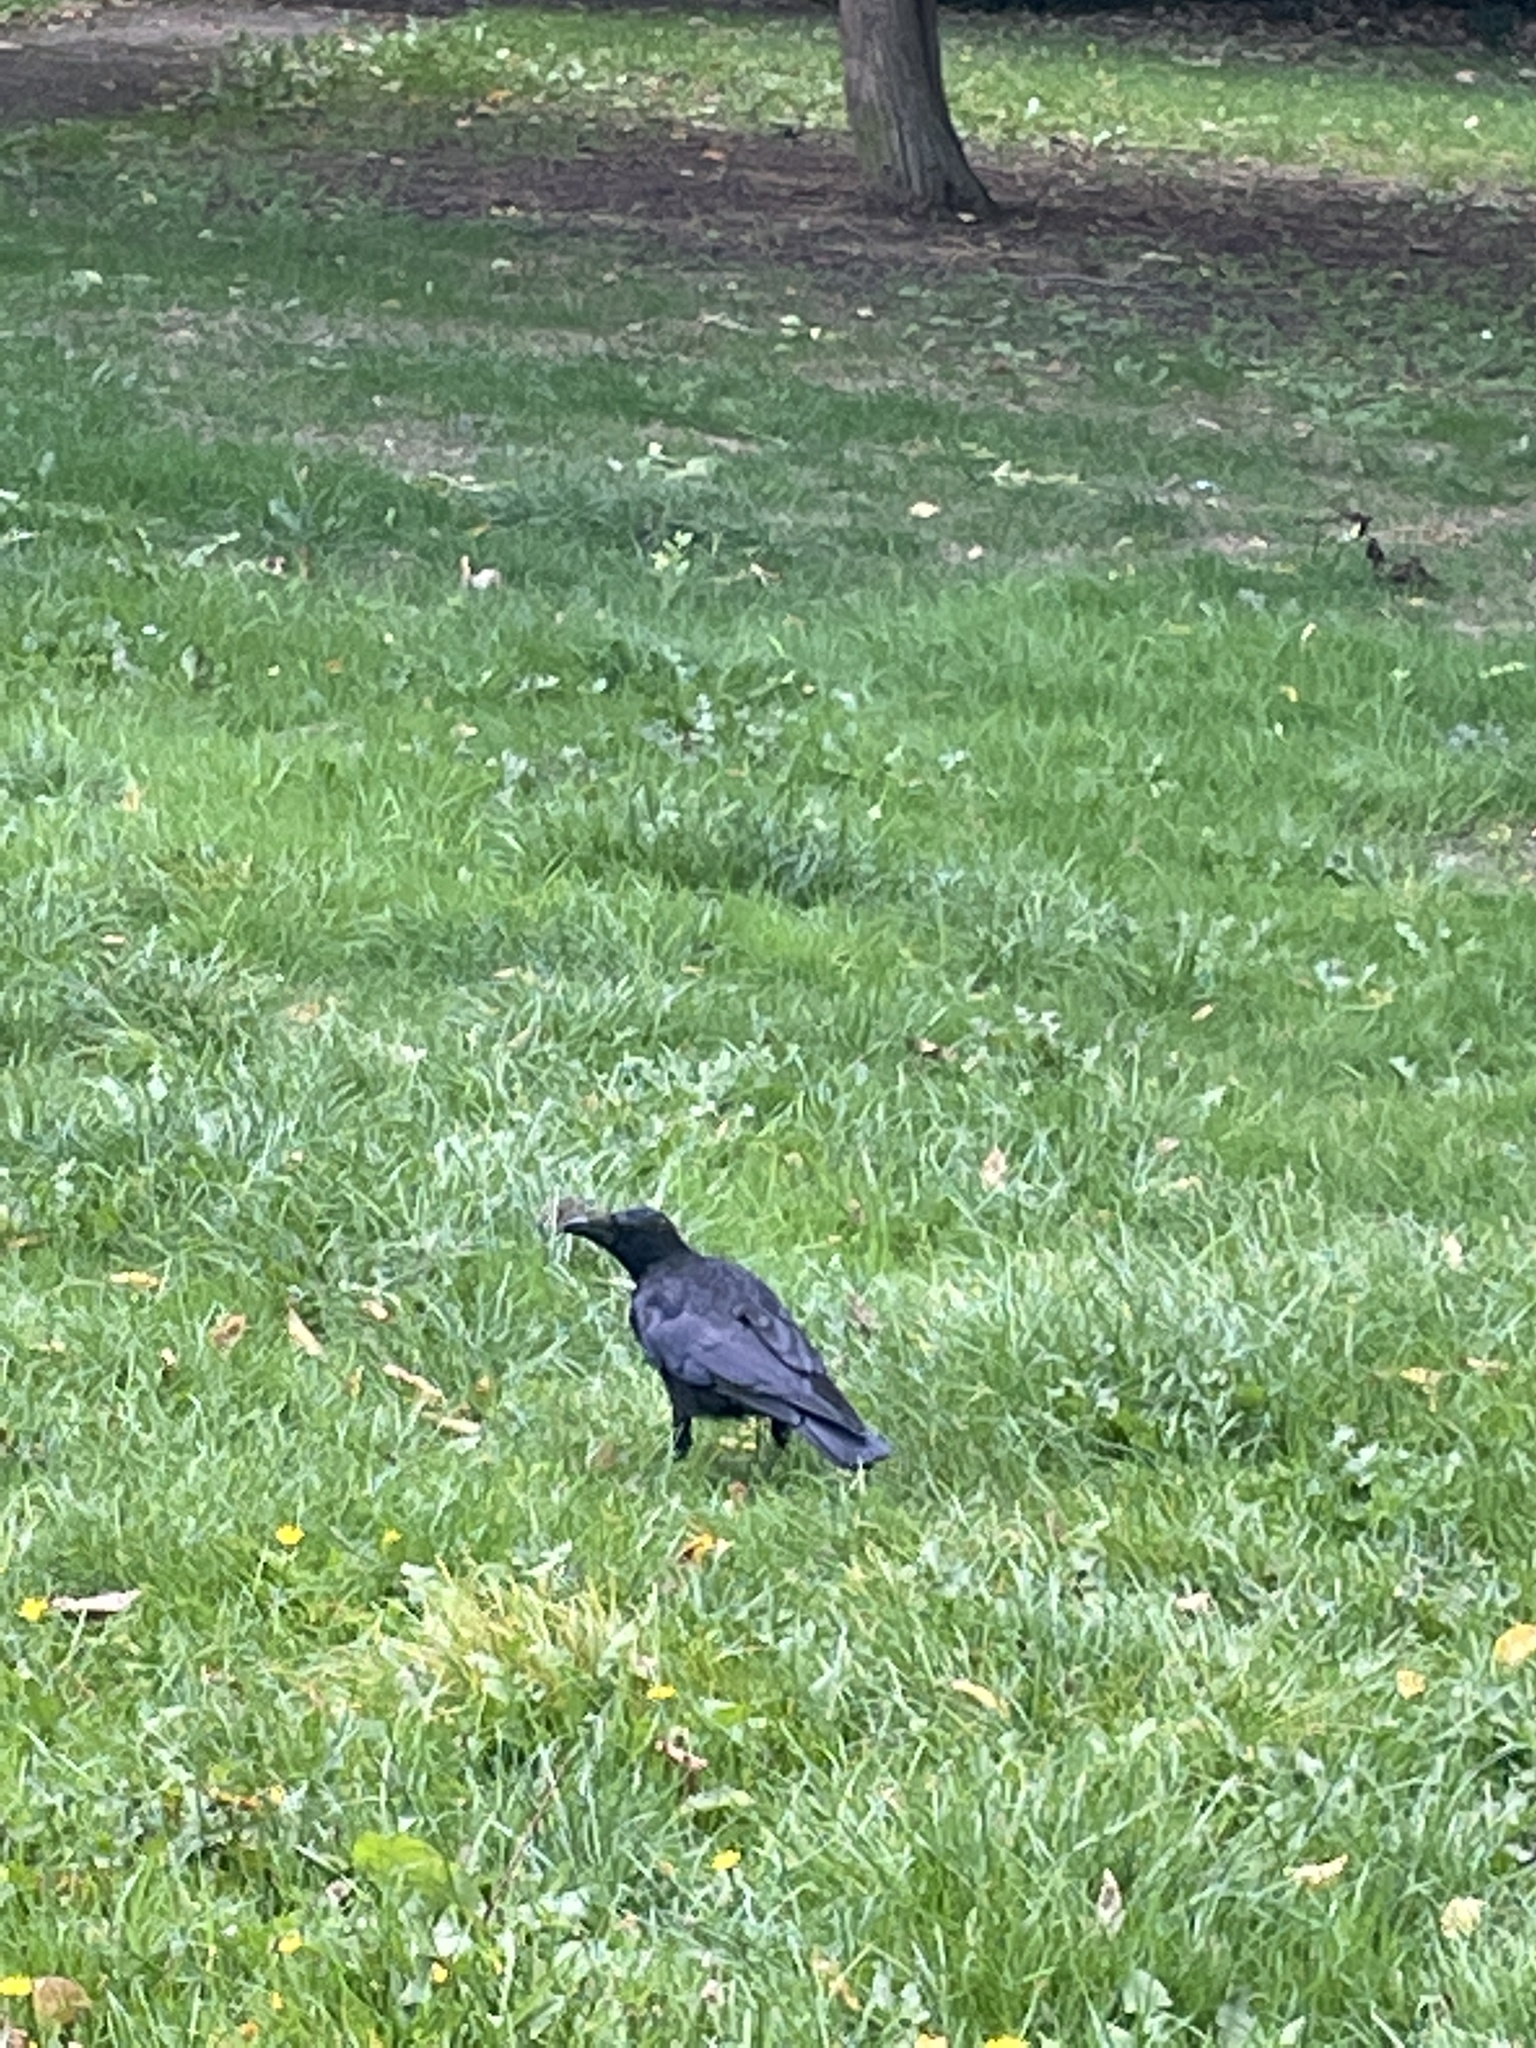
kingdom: Animalia
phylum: Chordata
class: Aves
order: Passeriformes
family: Corvidae
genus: Corvus
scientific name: Corvus corone
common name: Carrion crow
